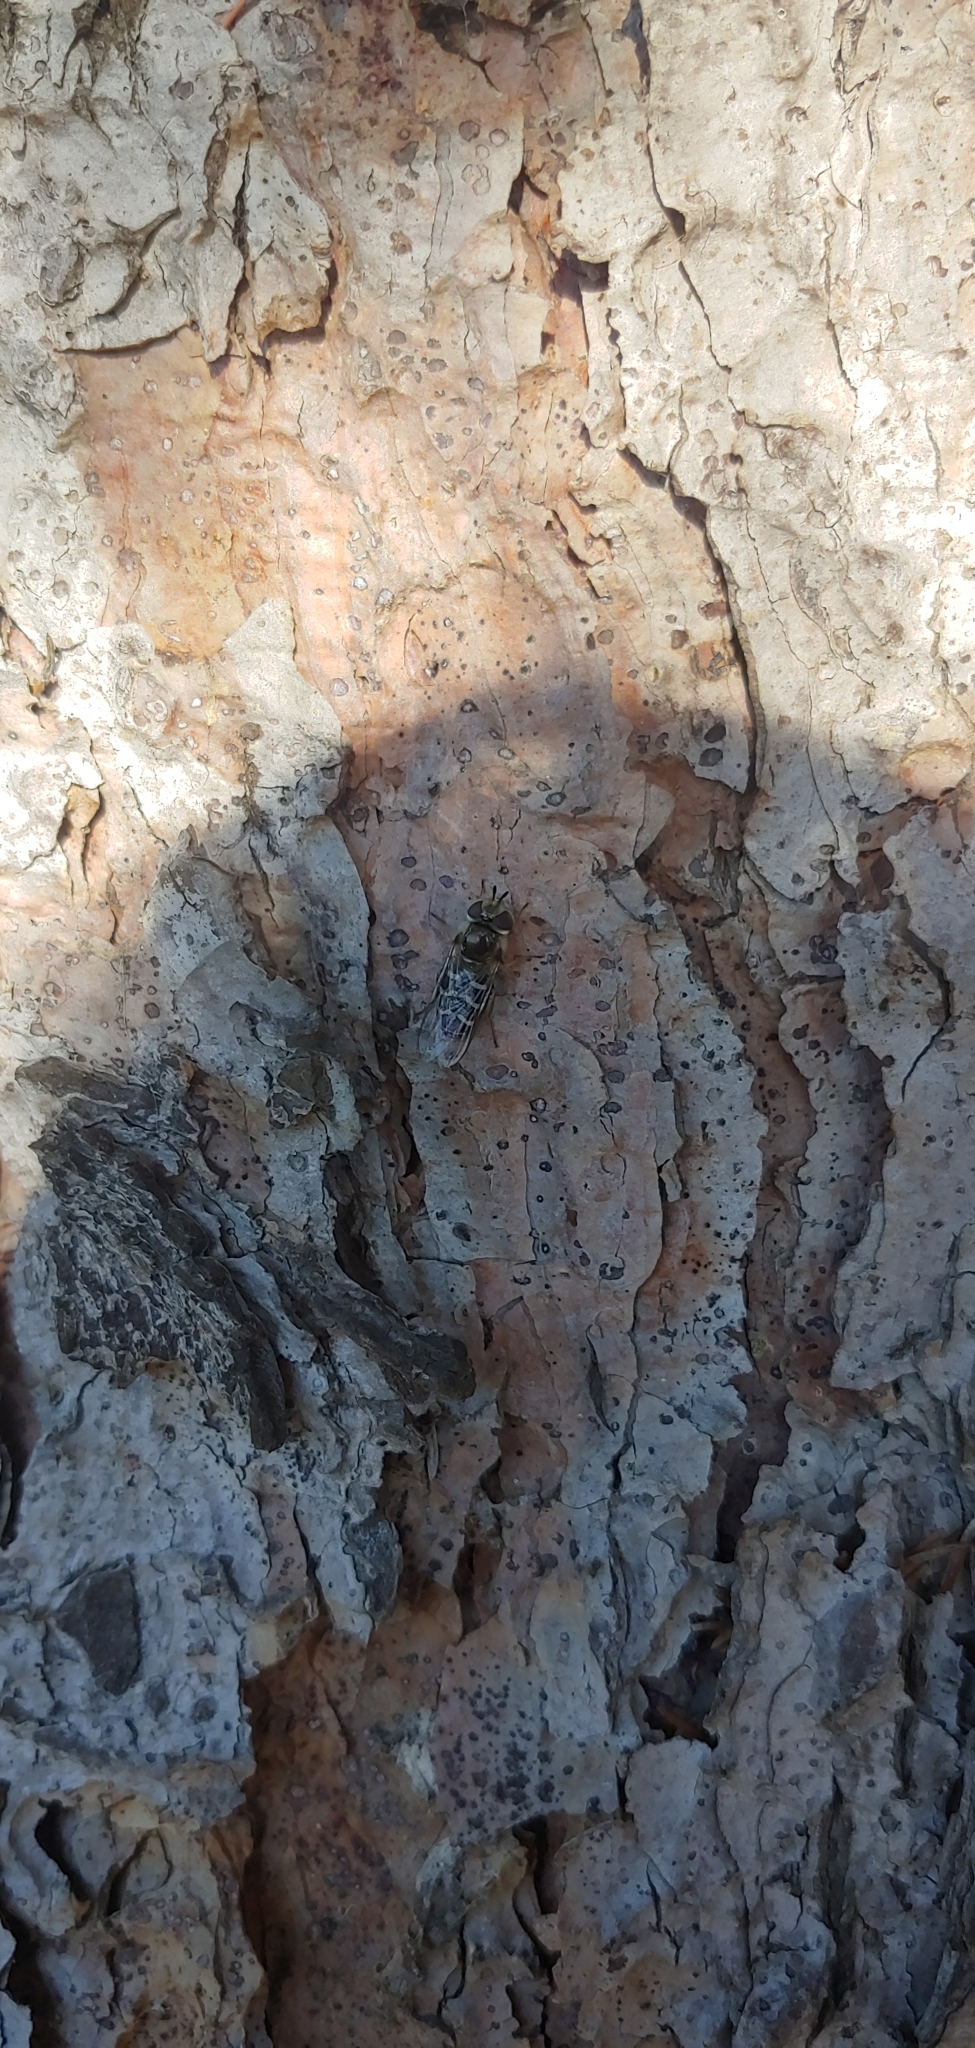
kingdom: Animalia
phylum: Arthropoda
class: Insecta
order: Diptera
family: Syrphidae
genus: Scaeva
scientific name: Scaeva affinis
